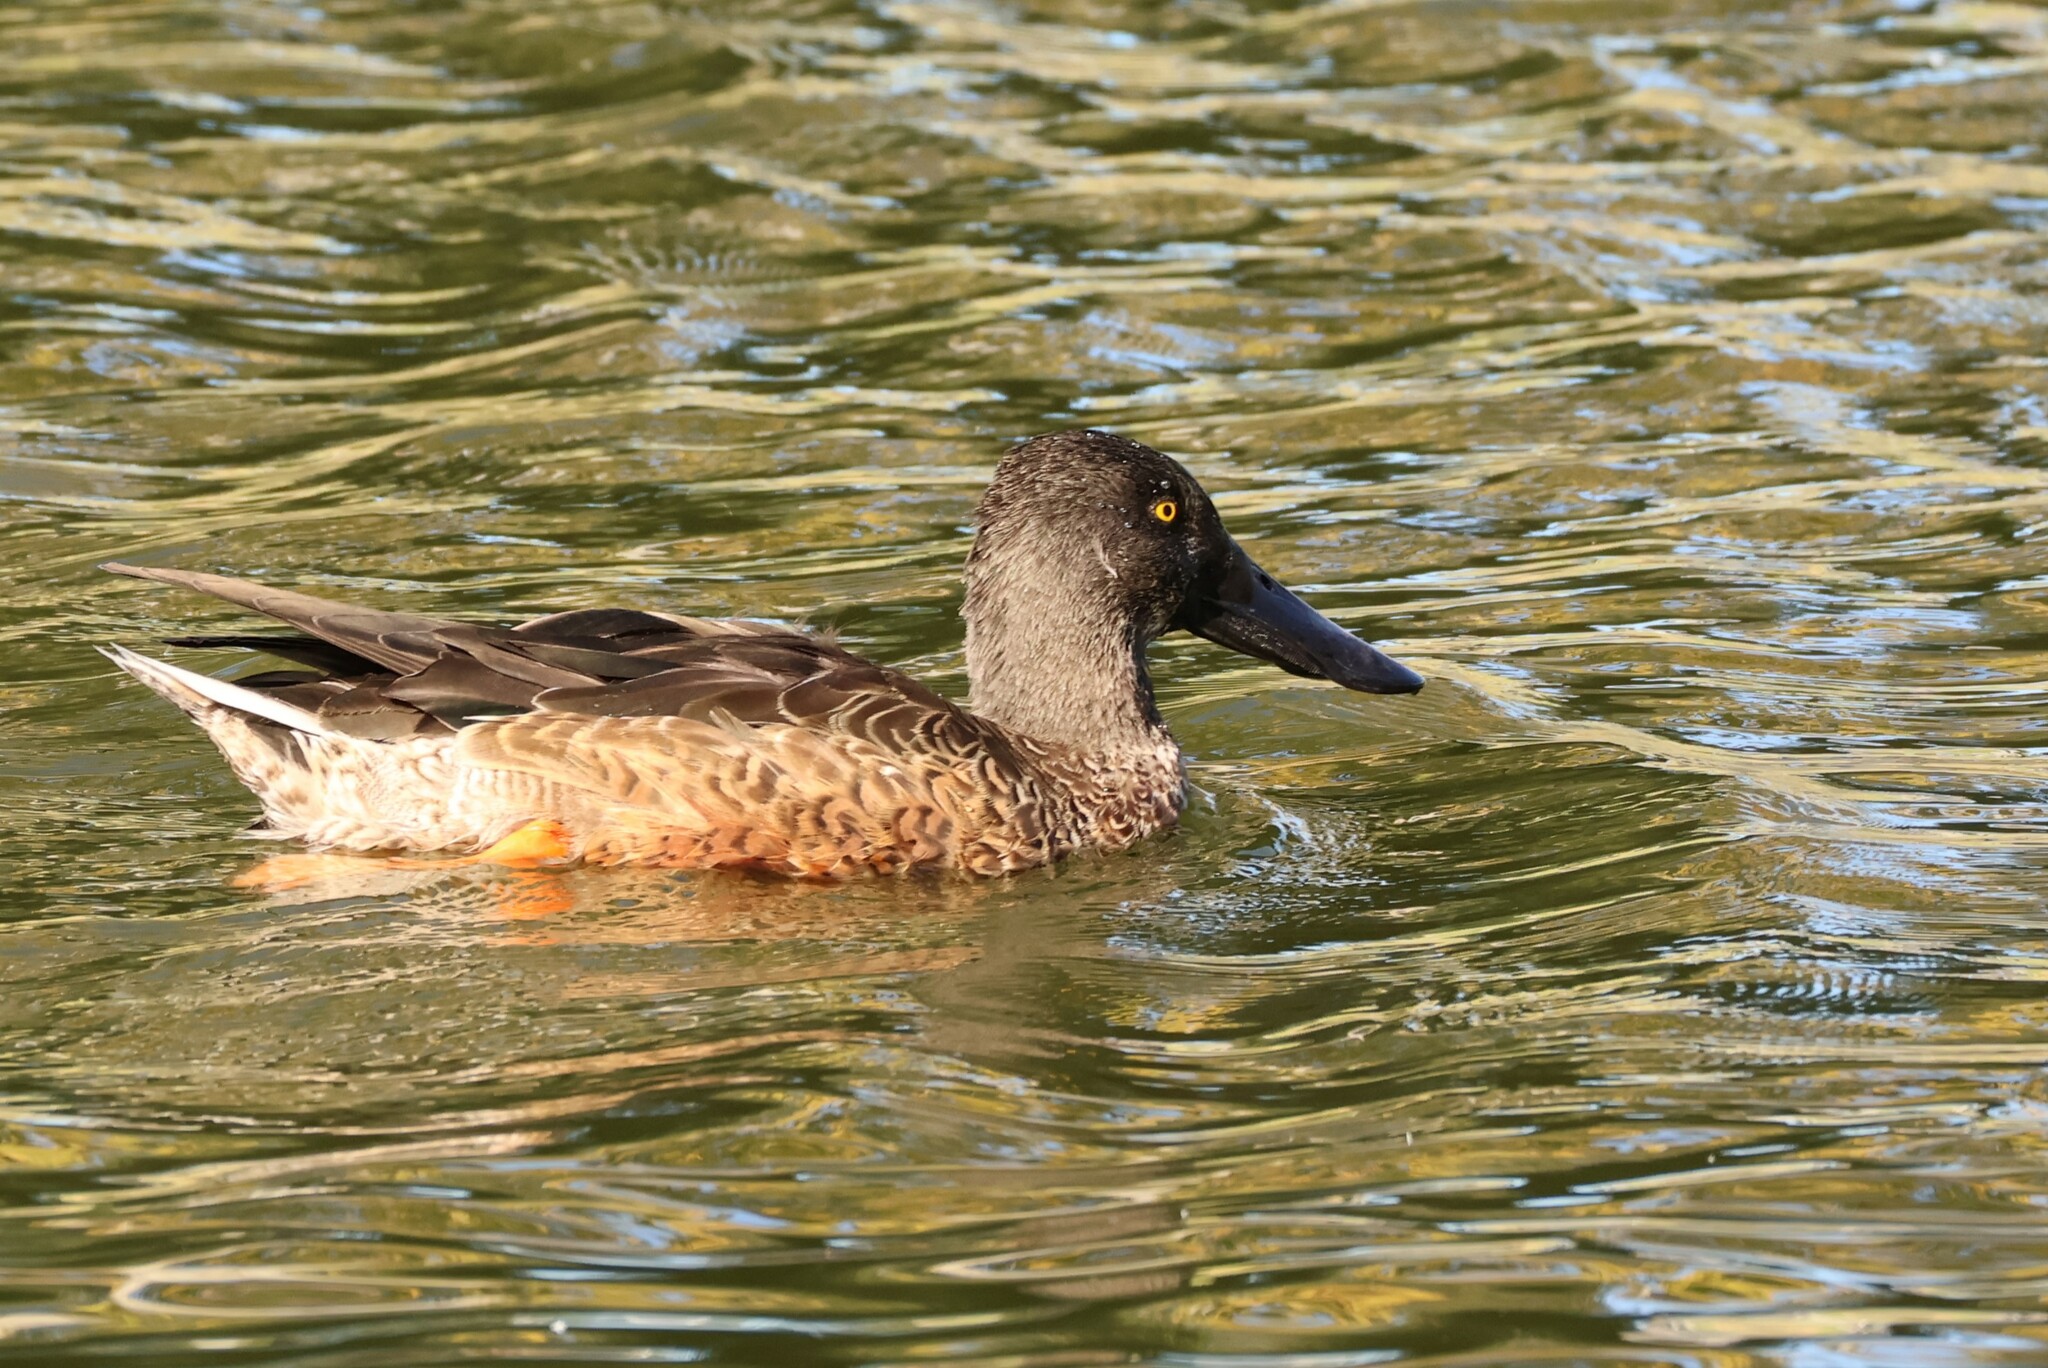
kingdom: Animalia
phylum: Chordata
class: Aves
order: Anseriformes
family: Anatidae
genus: Spatula
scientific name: Spatula clypeata
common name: Northern shoveler
